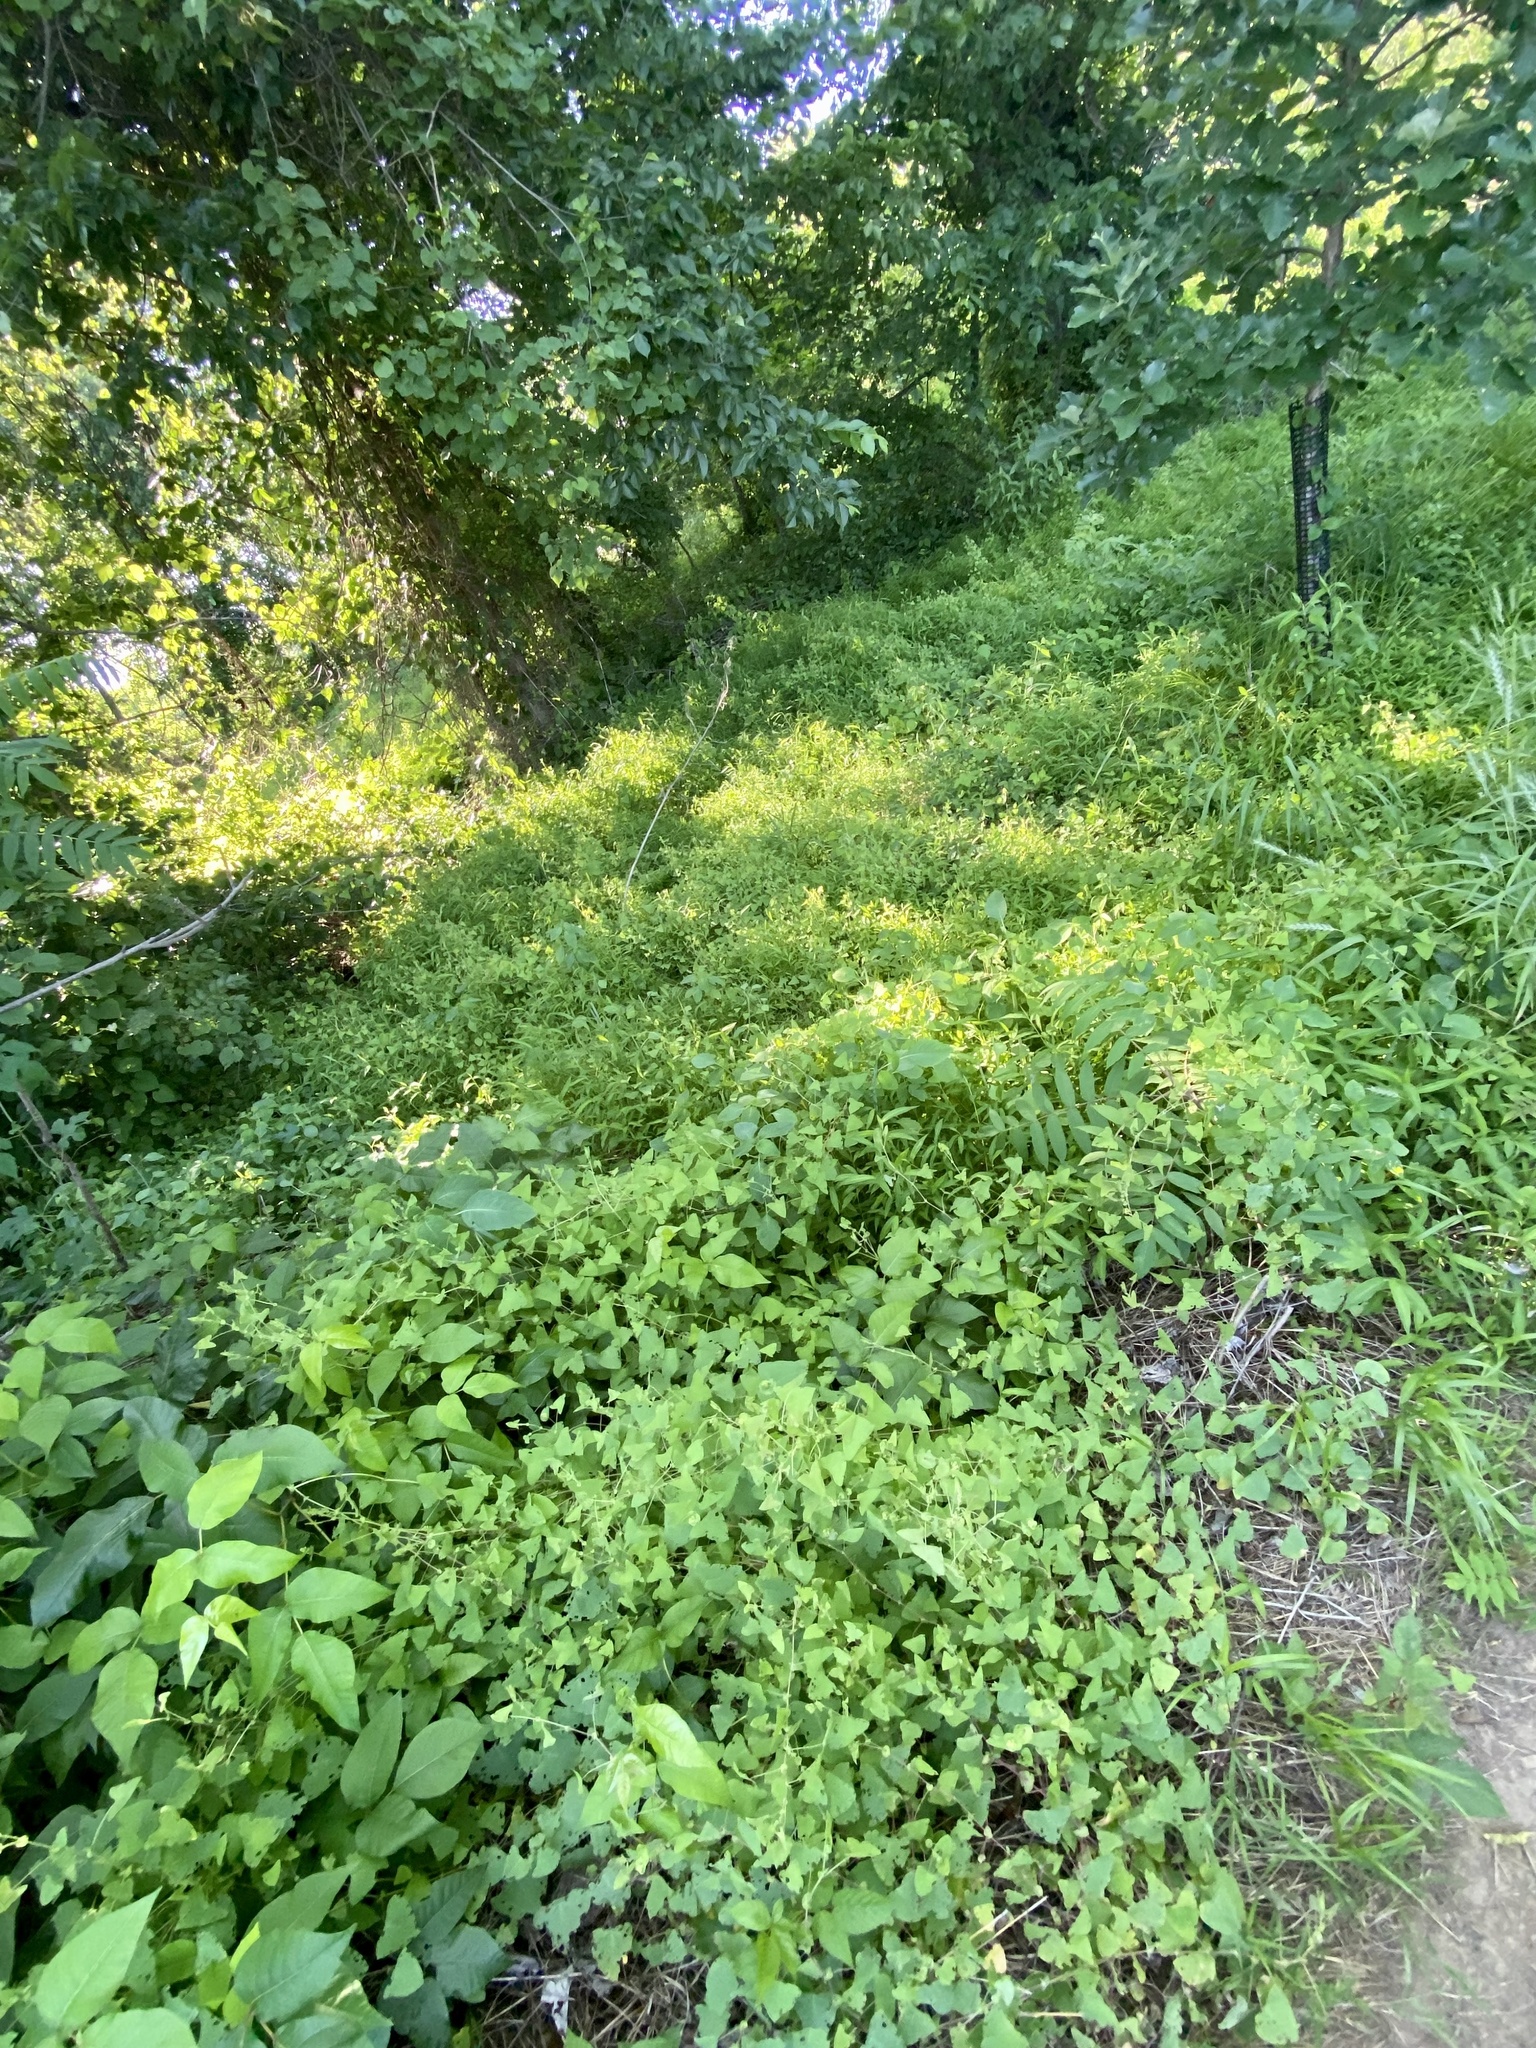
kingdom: Plantae
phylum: Tracheophyta
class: Magnoliopsida
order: Caryophyllales
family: Polygonaceae
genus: Persicaria
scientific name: Persicaria perfoliata
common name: Asiatic tearthumb
